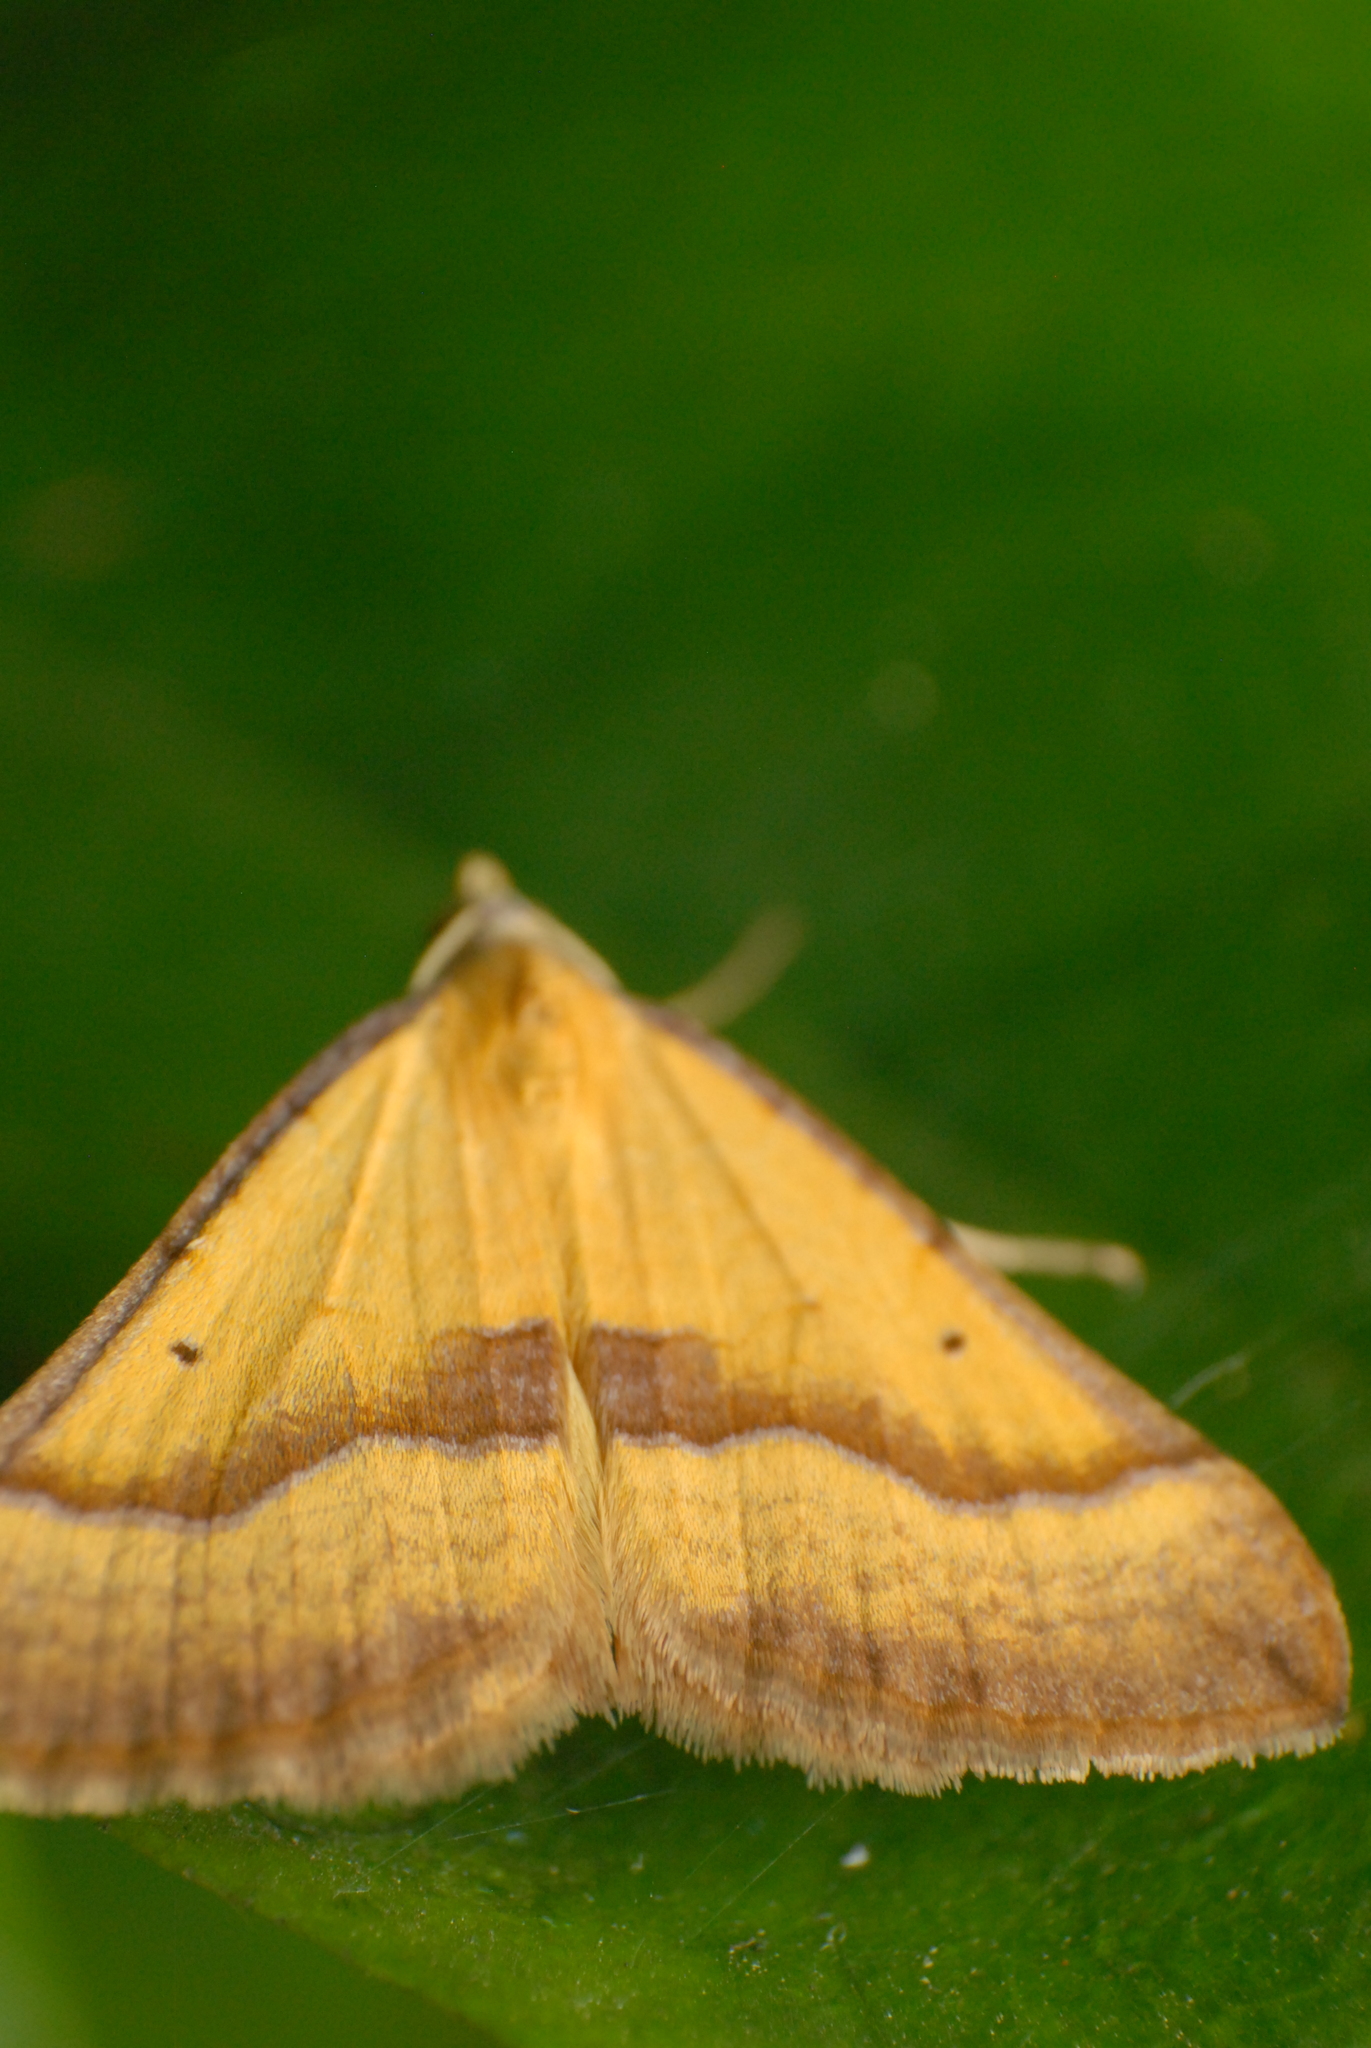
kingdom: Animalia
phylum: Arthropoda
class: Insecta
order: Lepidoptera
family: Geometridae
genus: Anachloris
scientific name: Anachloris subochraria
